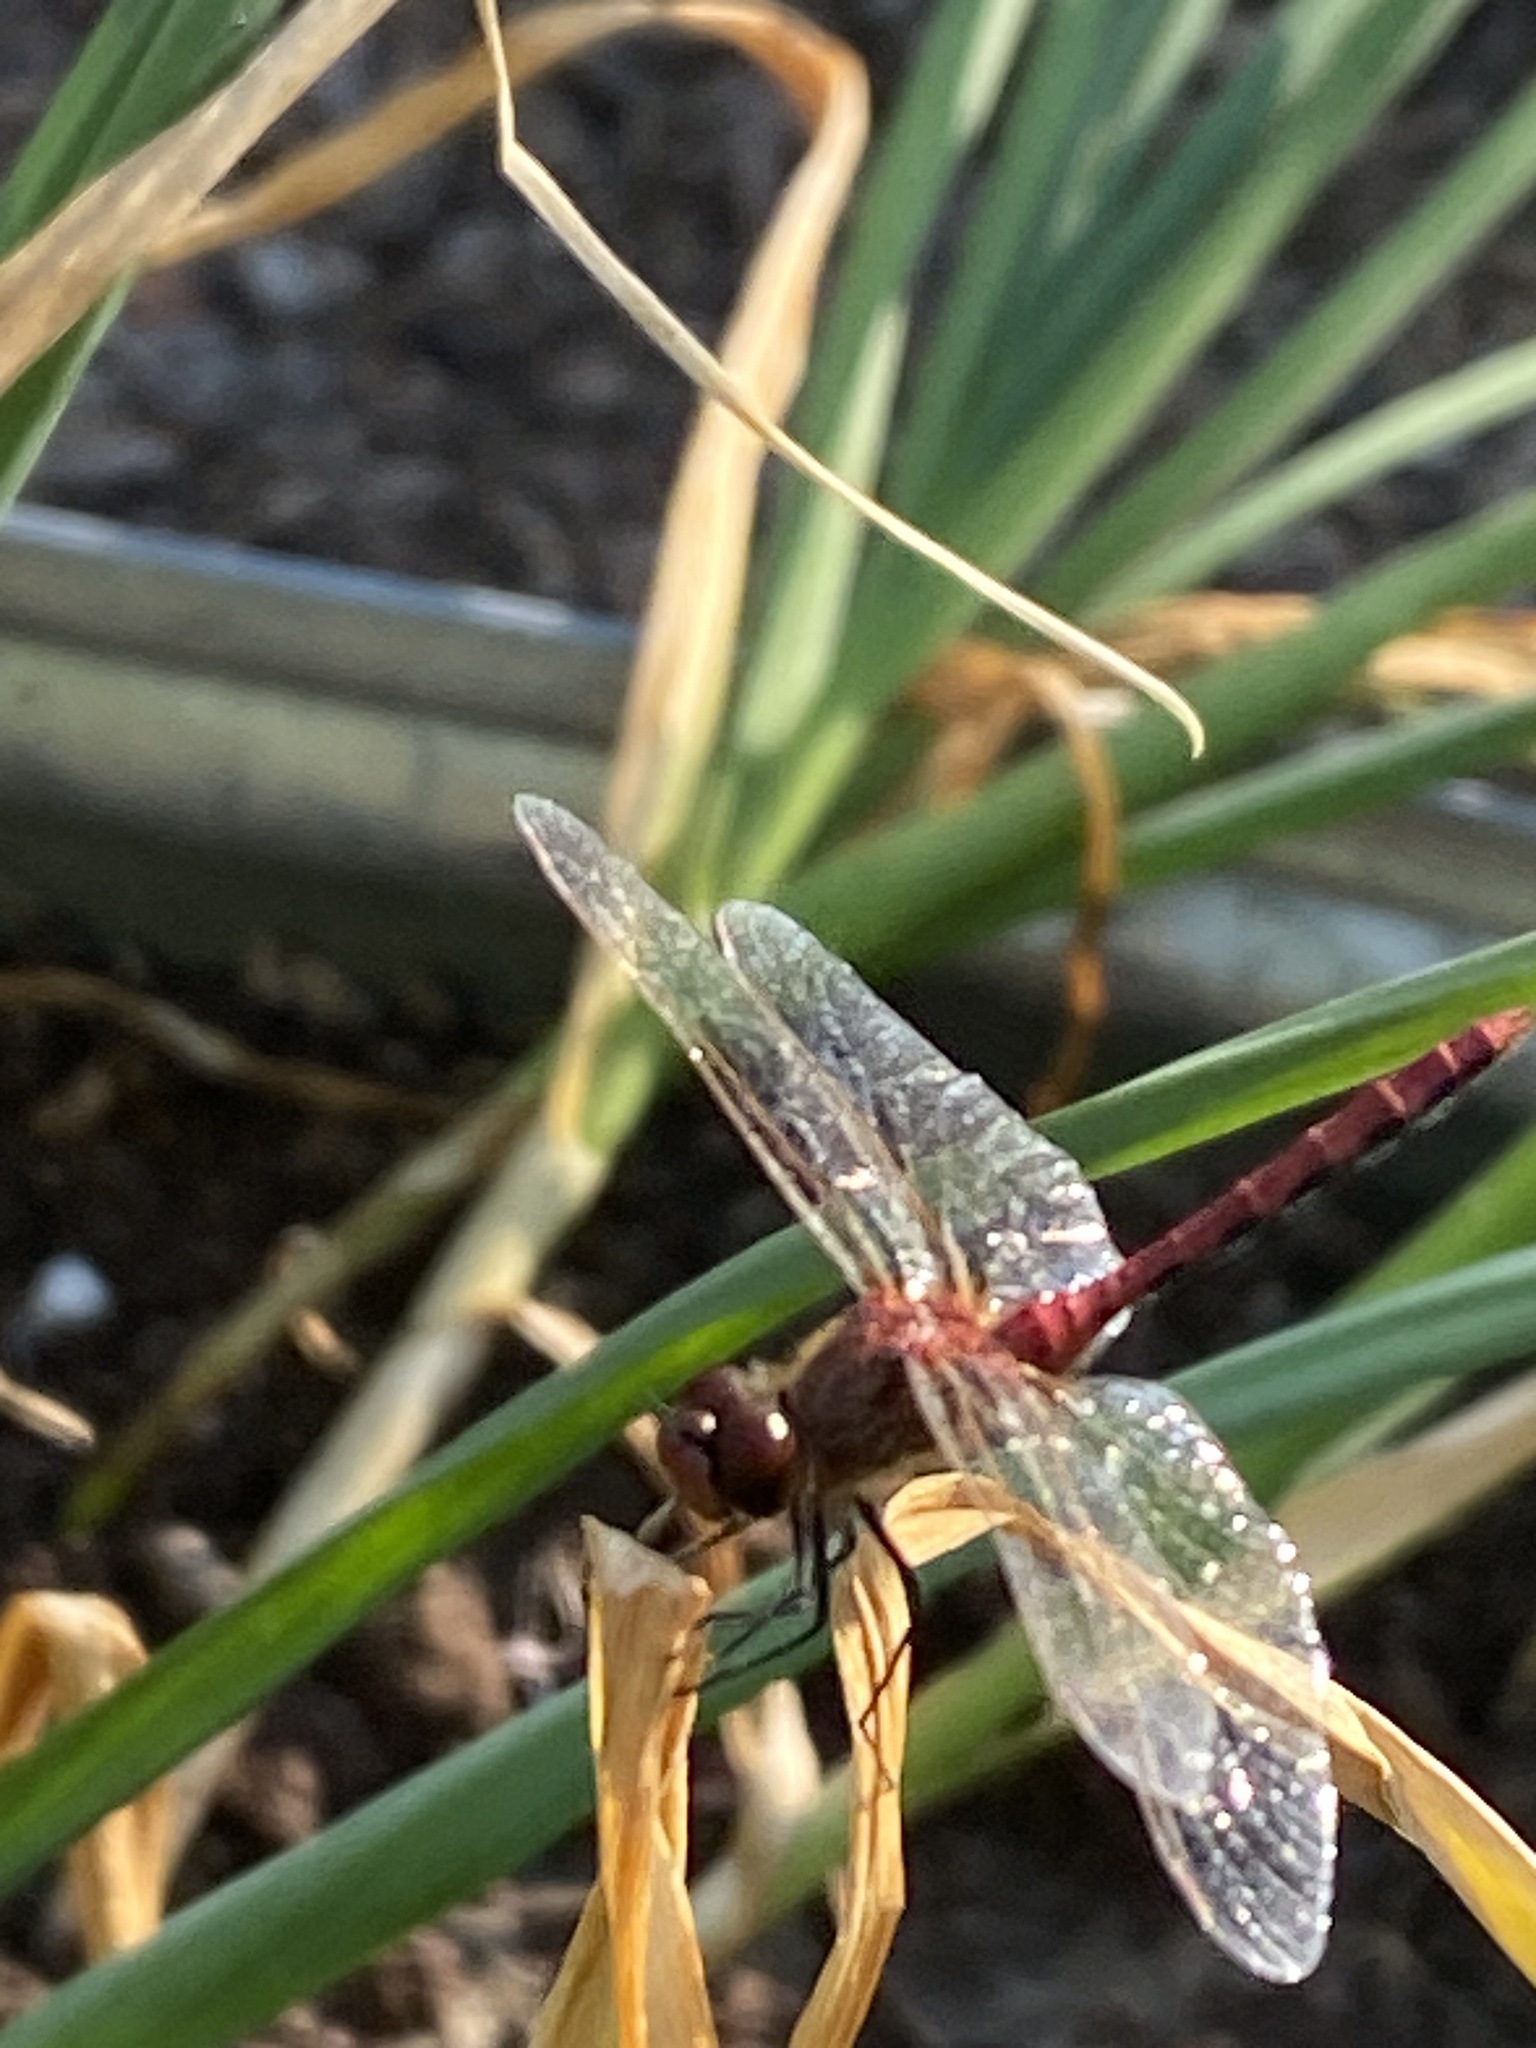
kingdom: Animalia
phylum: Arthropoda
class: Insecta
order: Odonata
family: Libellulidae
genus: Sympetrum
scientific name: Sympetrum internum
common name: Cherry-faced meadowhawk
